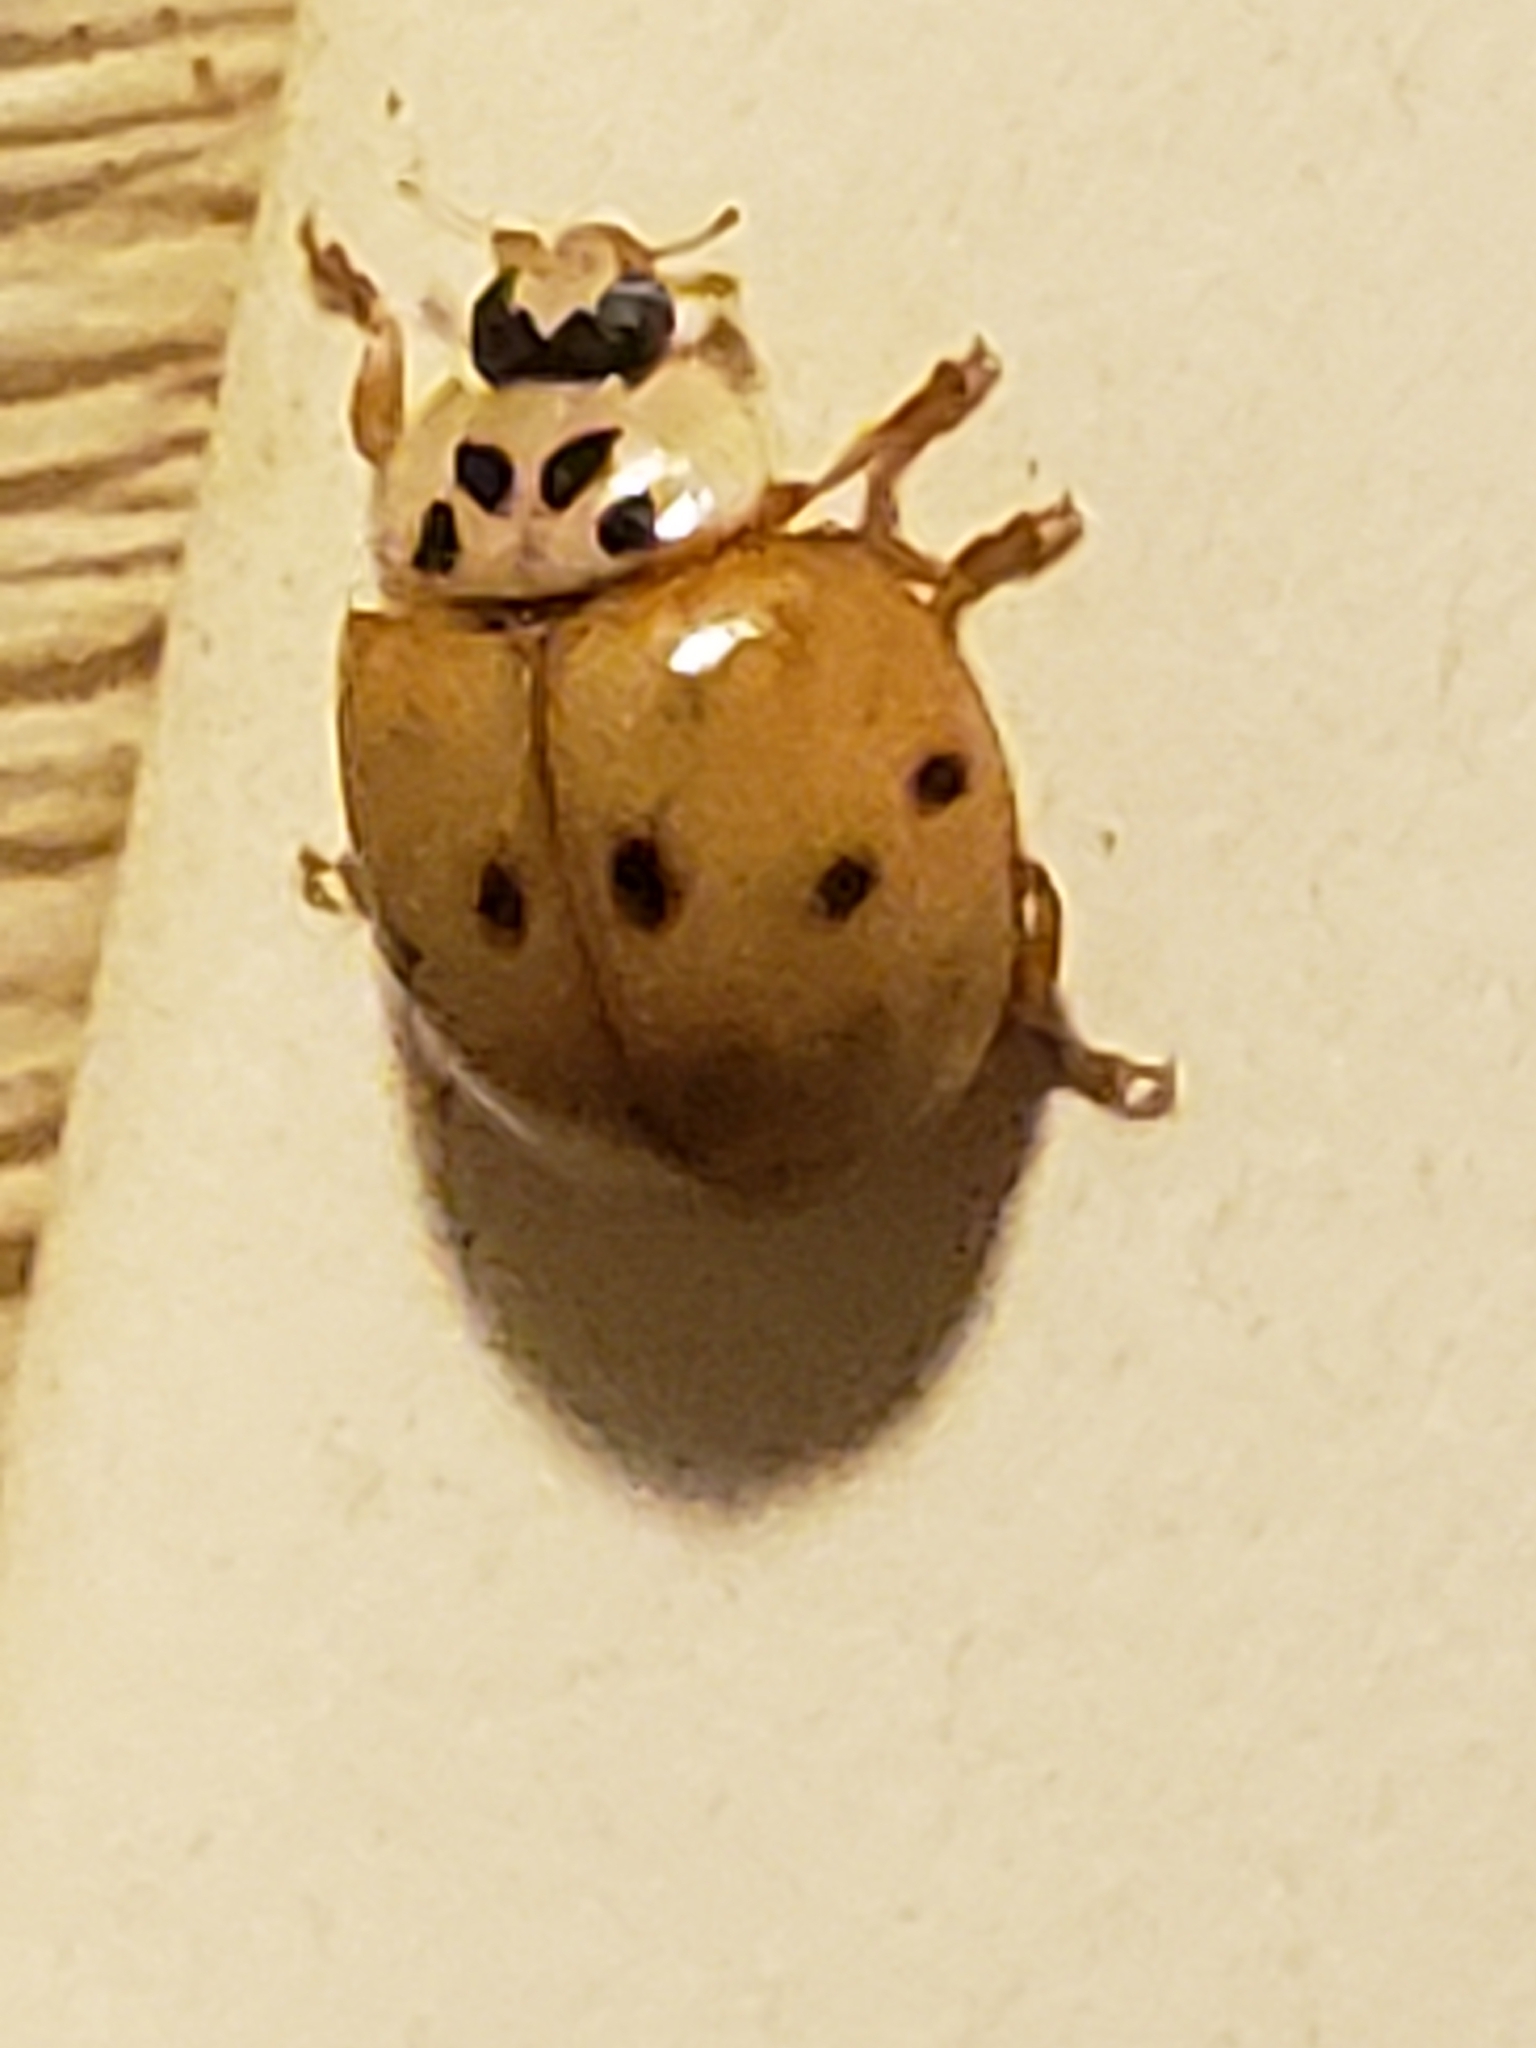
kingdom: Animalia
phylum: Arthropoda
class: Insecta
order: Coleoptera
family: Coccinellidae
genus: Harmonia
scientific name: Harmonia axyridis
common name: Harlequin ladybird
